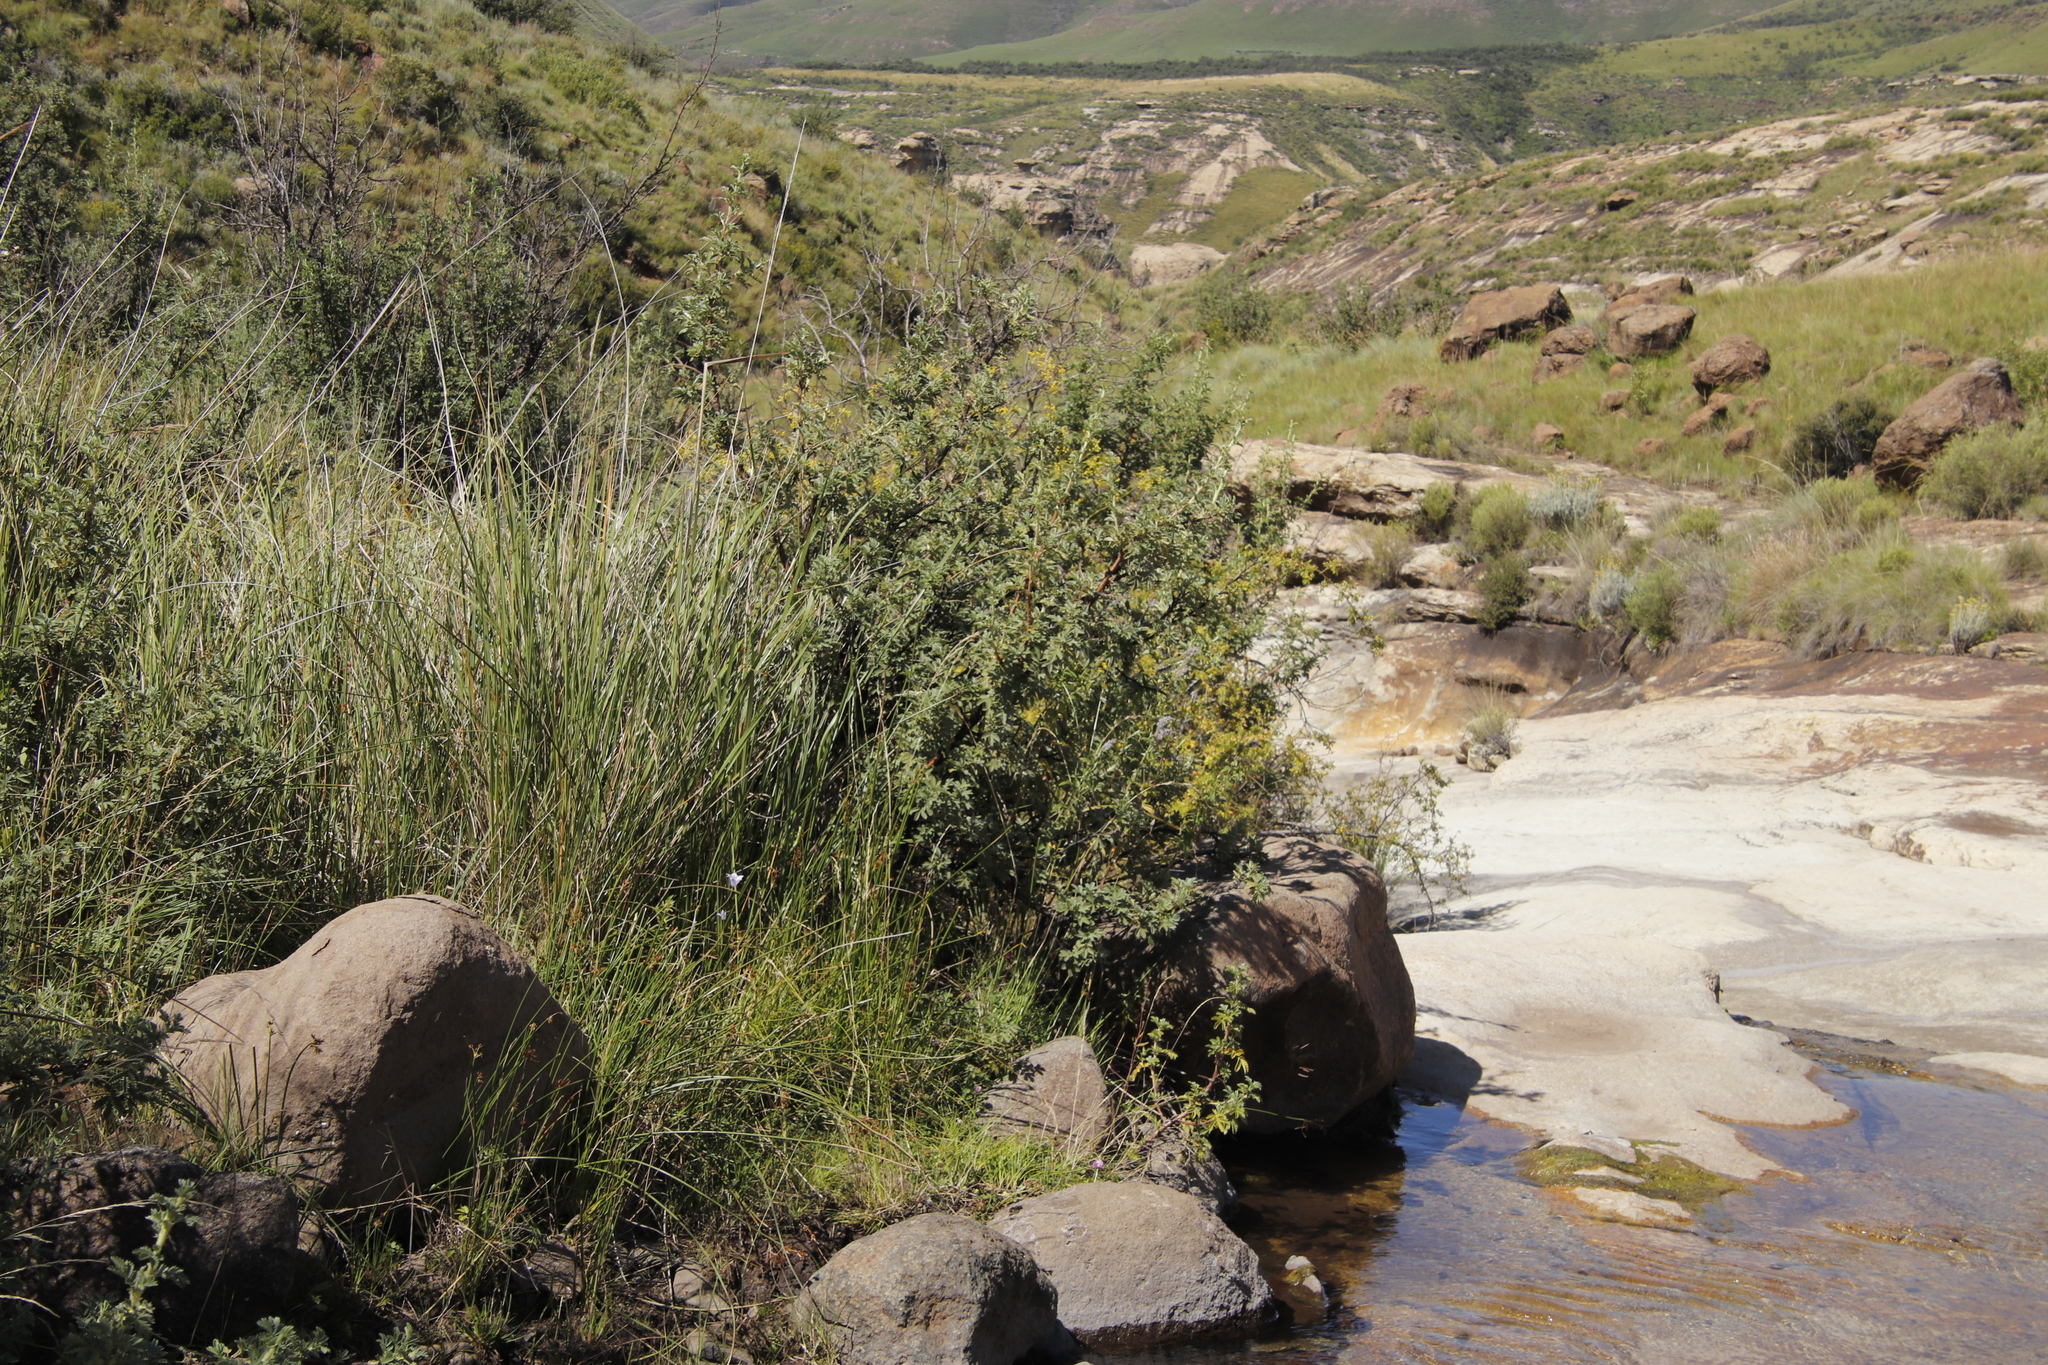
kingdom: Plantae
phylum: Tracheophyta
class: Magnoliopsida
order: Rosales
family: Rosaceae
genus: Leucosidea
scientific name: Leucosidea sericea
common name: Oldwood
